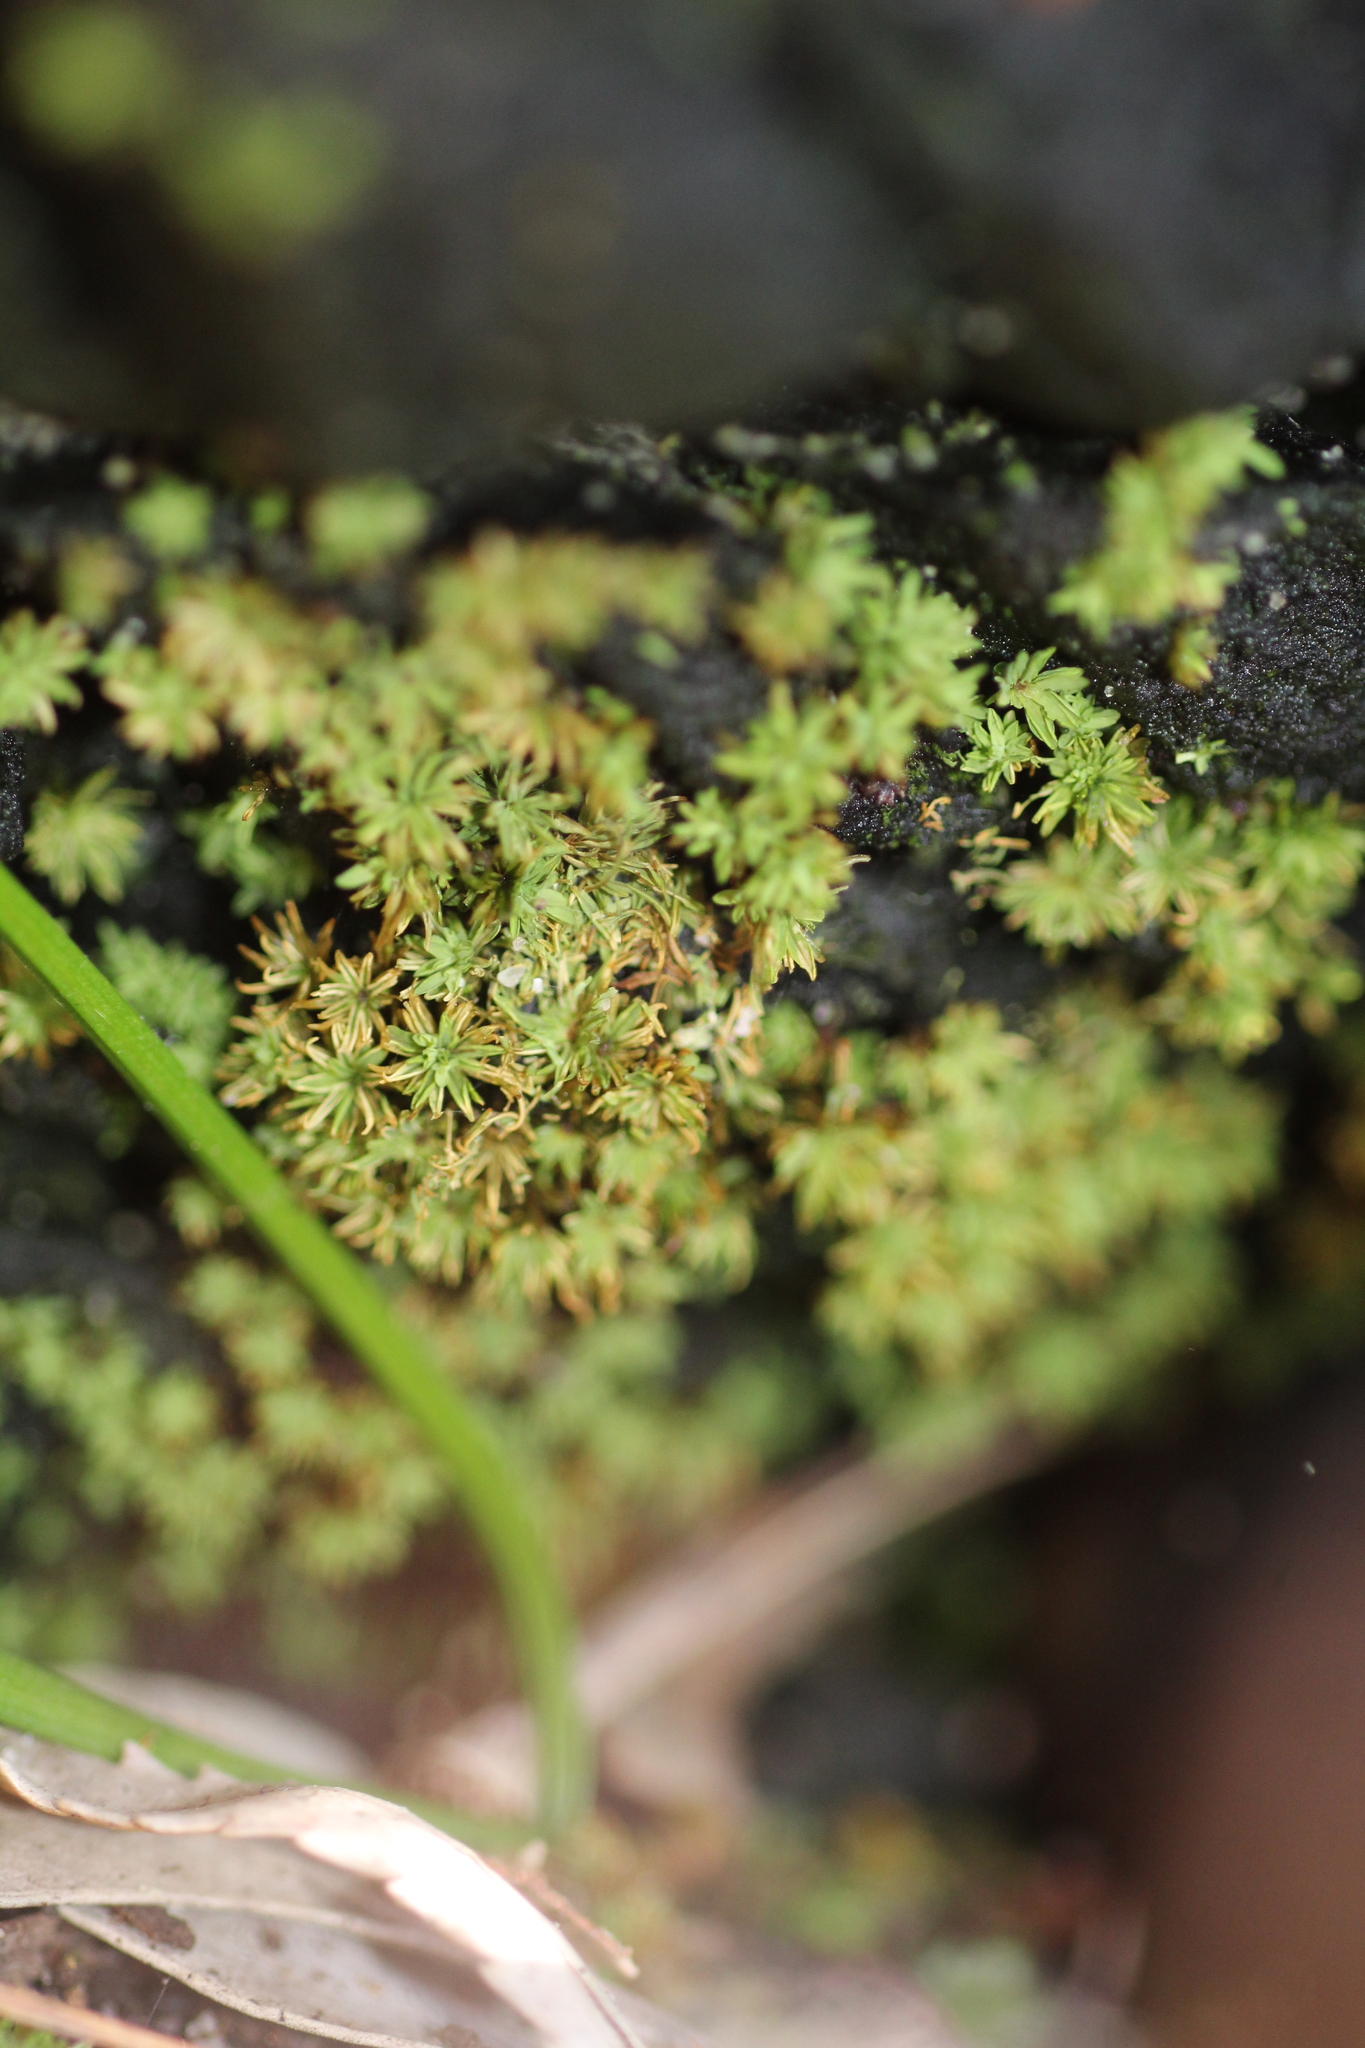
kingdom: Plantae
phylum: Bryophyta
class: Bryopsida
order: Pottiales
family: Pottiaceae
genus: Calymperastrum
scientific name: Calymperastrum latifolium
